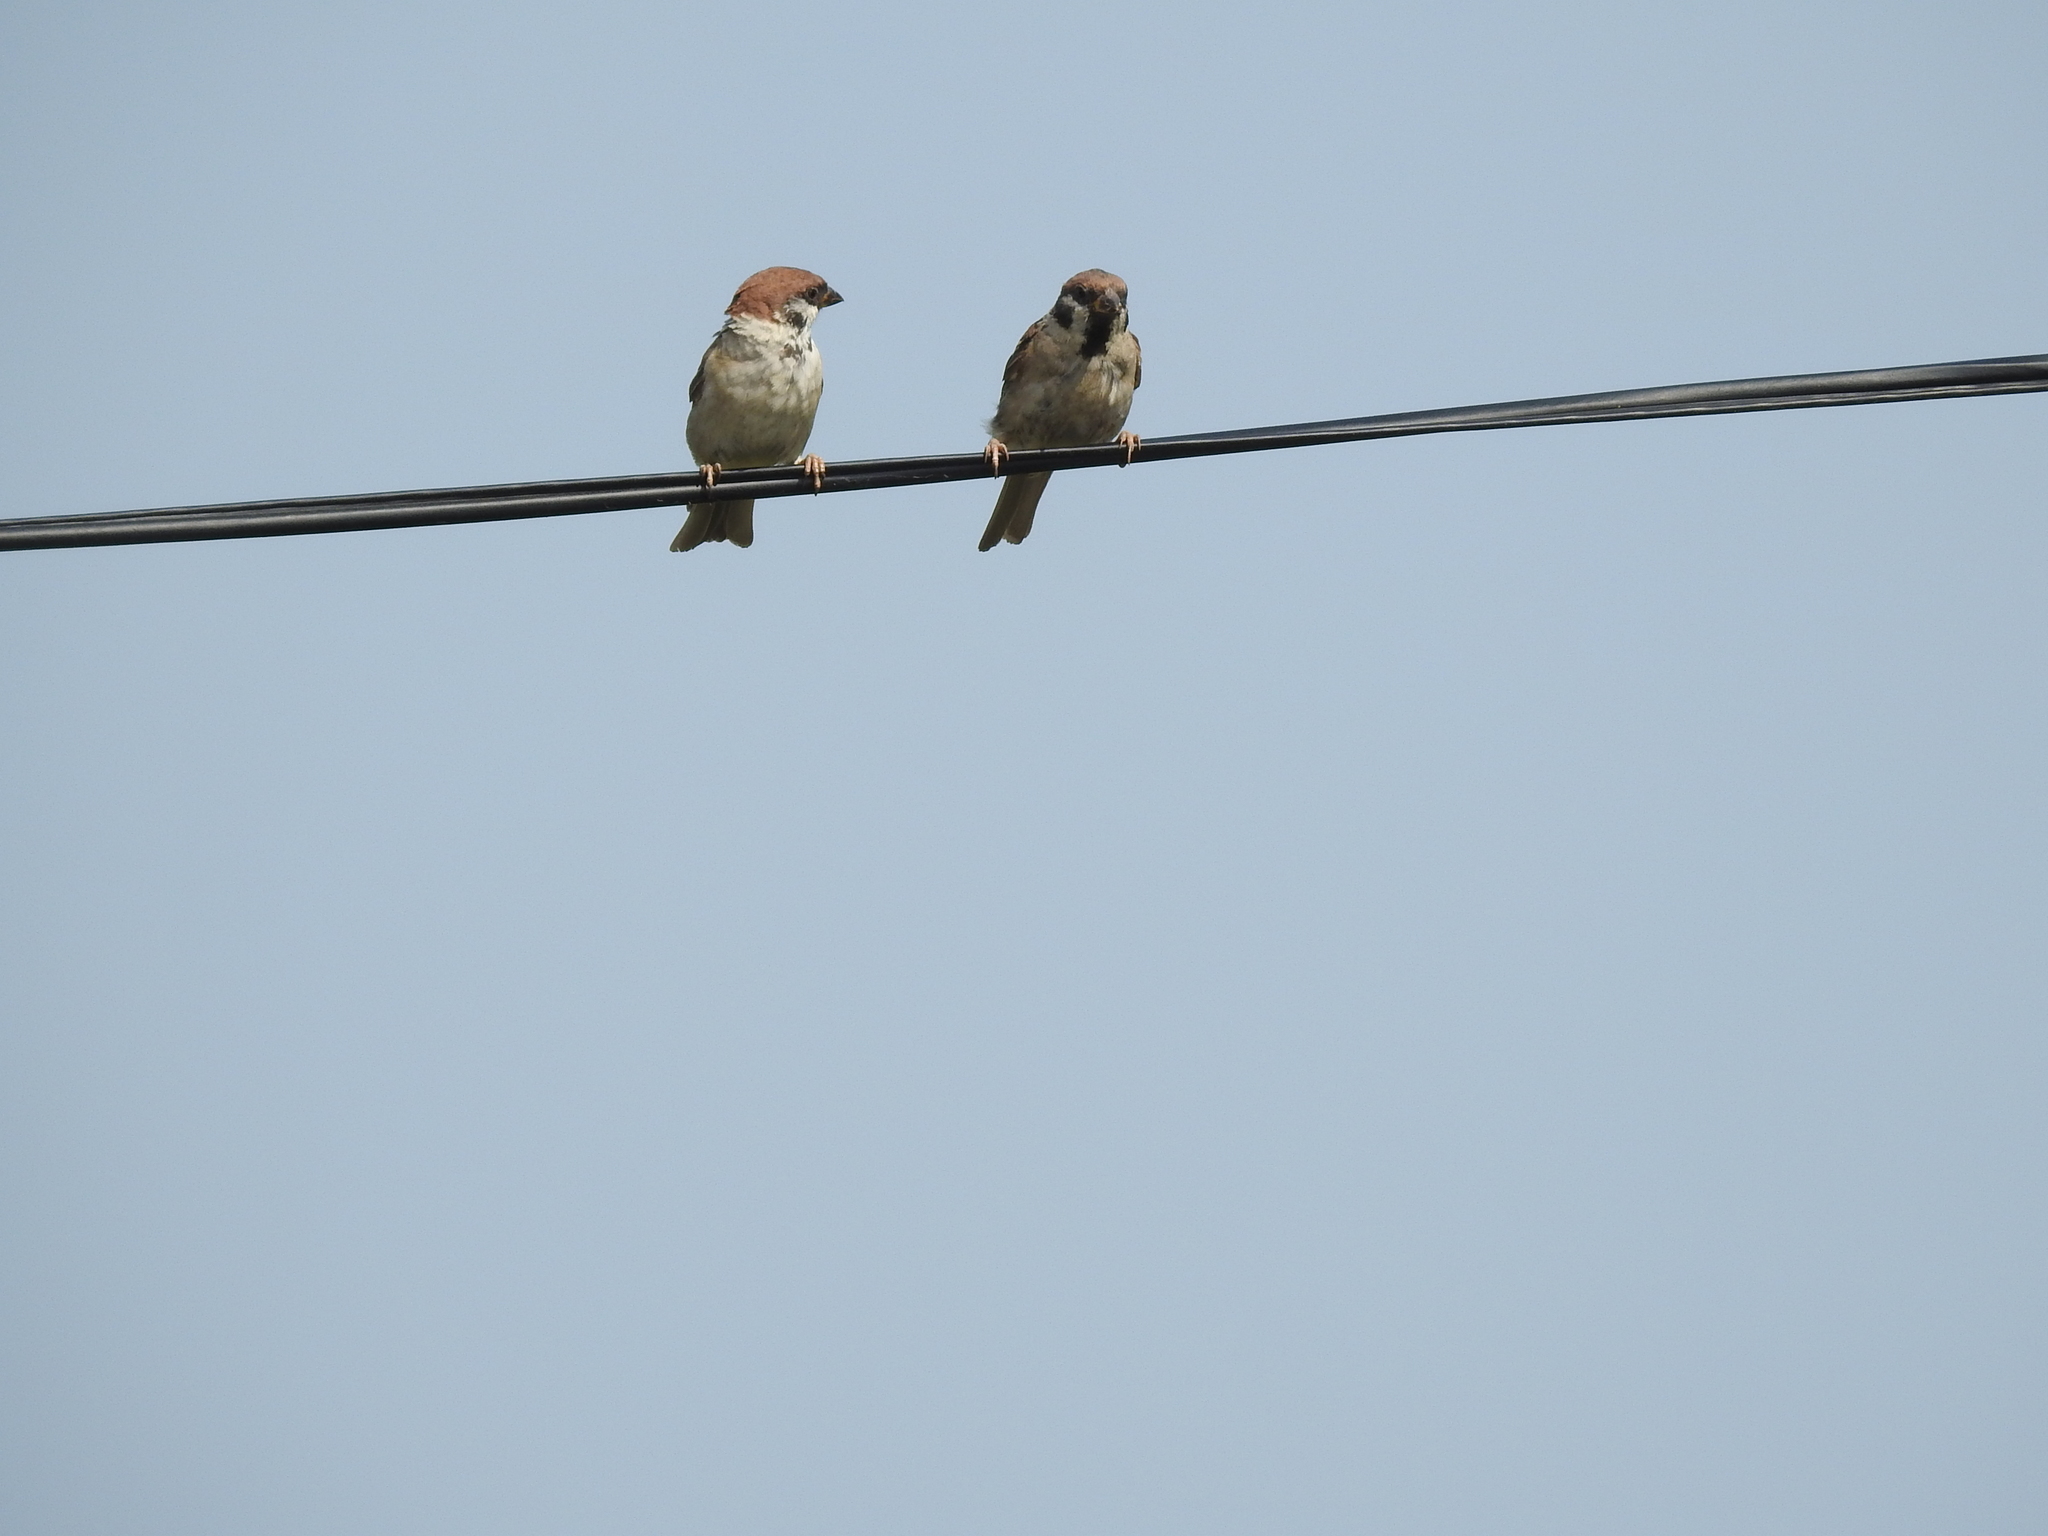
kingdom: Animalia
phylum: Chordata
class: Aves
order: Passeriformes
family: Passeridae
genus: Passer
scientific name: Passer montanus
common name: Eurasian tree sparrow
